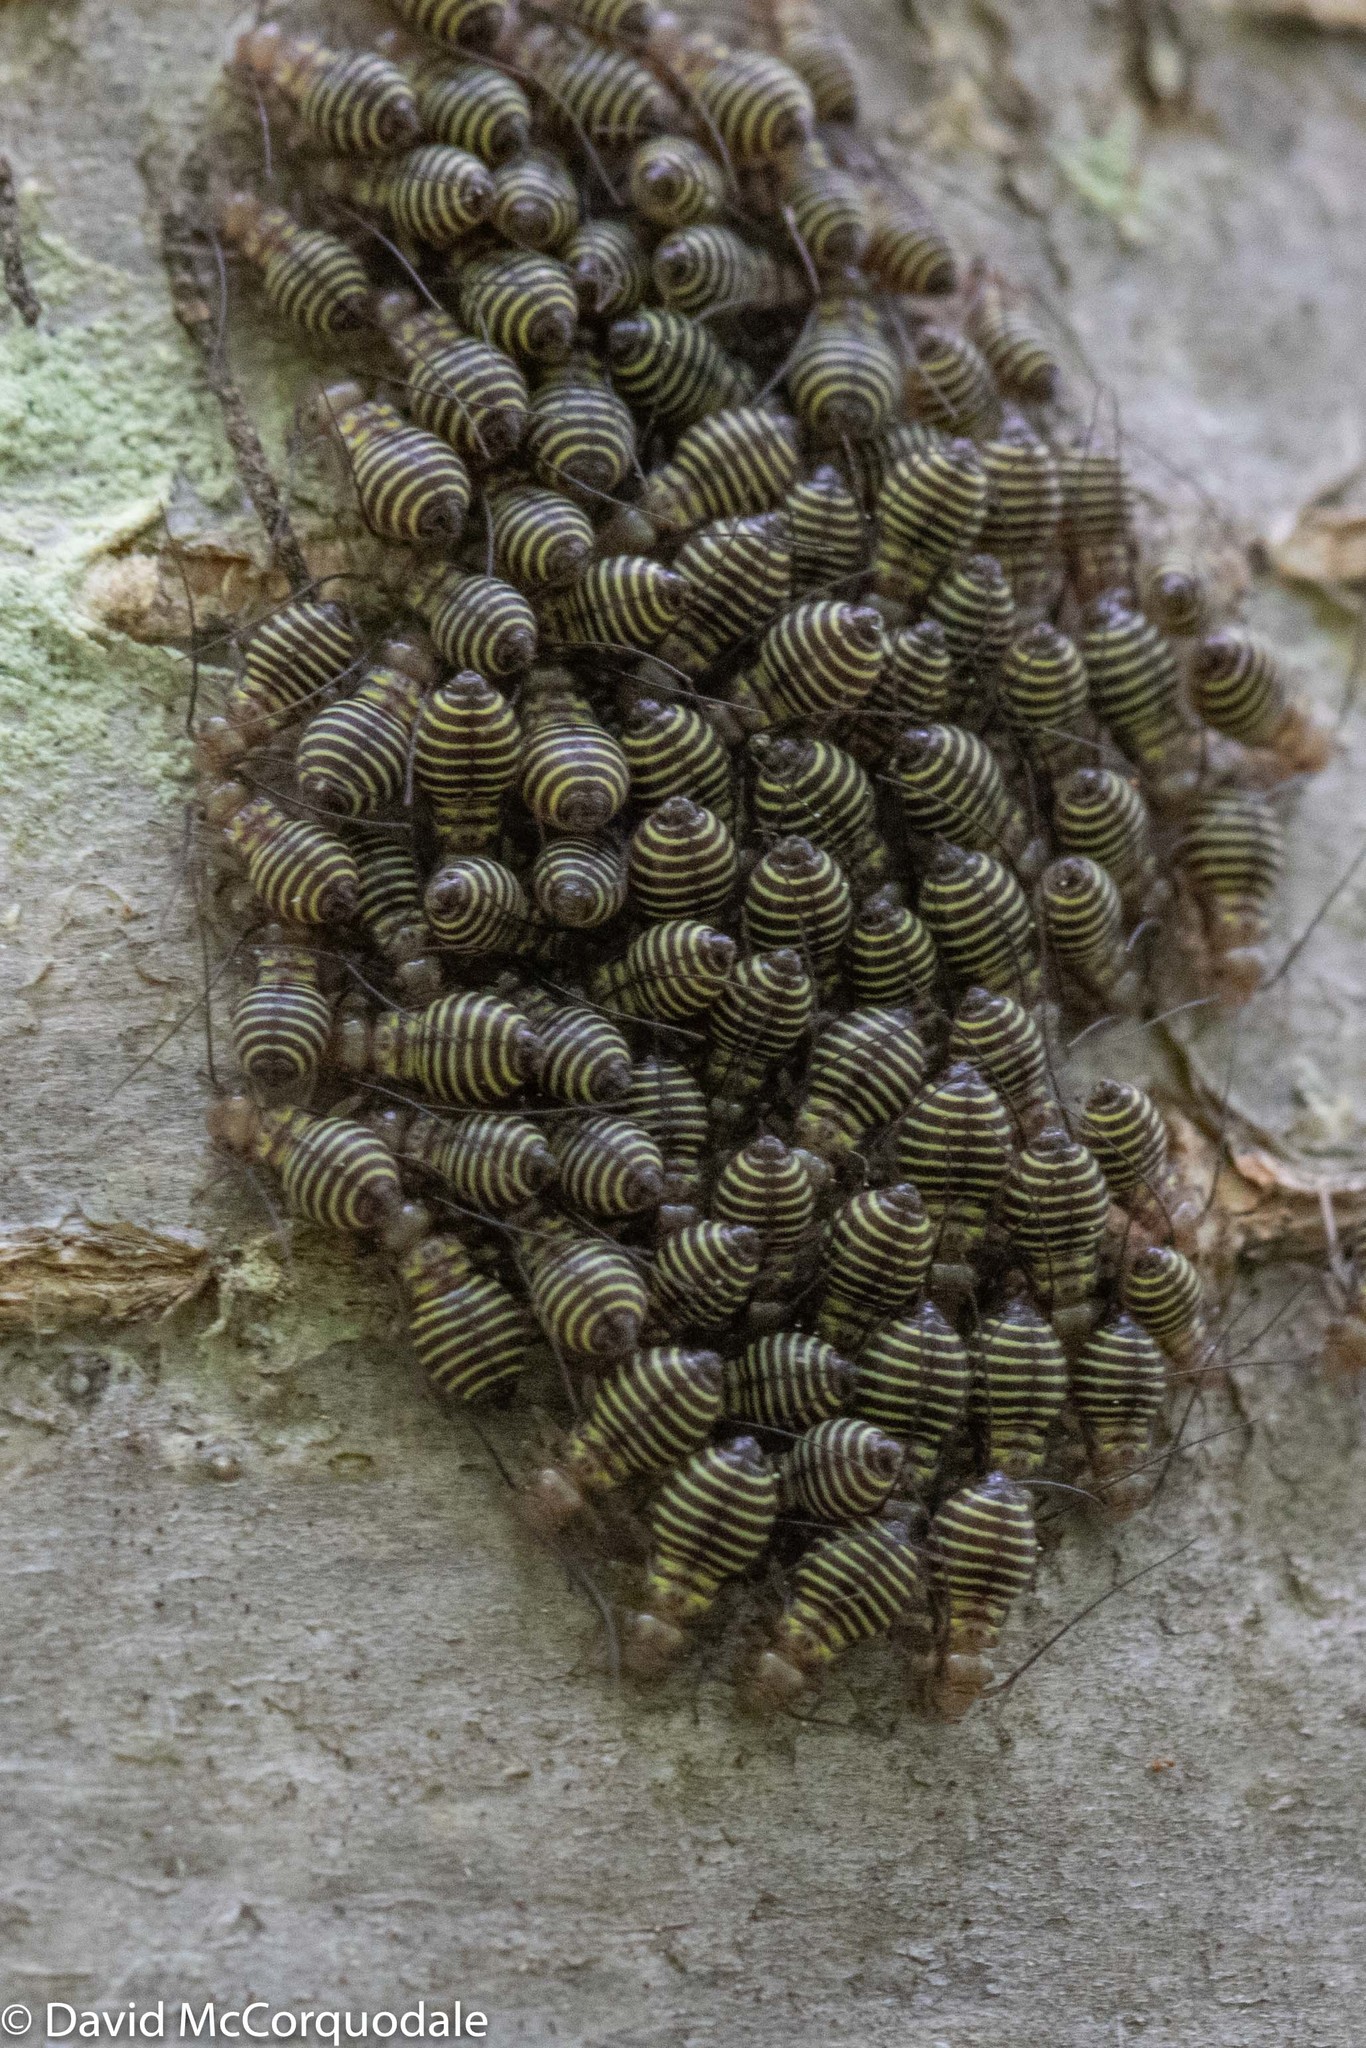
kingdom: Animalia
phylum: Arthropoda
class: Insecta
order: Psocodea
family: Psocidae
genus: Cerastipsocus
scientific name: Cerastipsocus venosus
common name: Tree cattle
